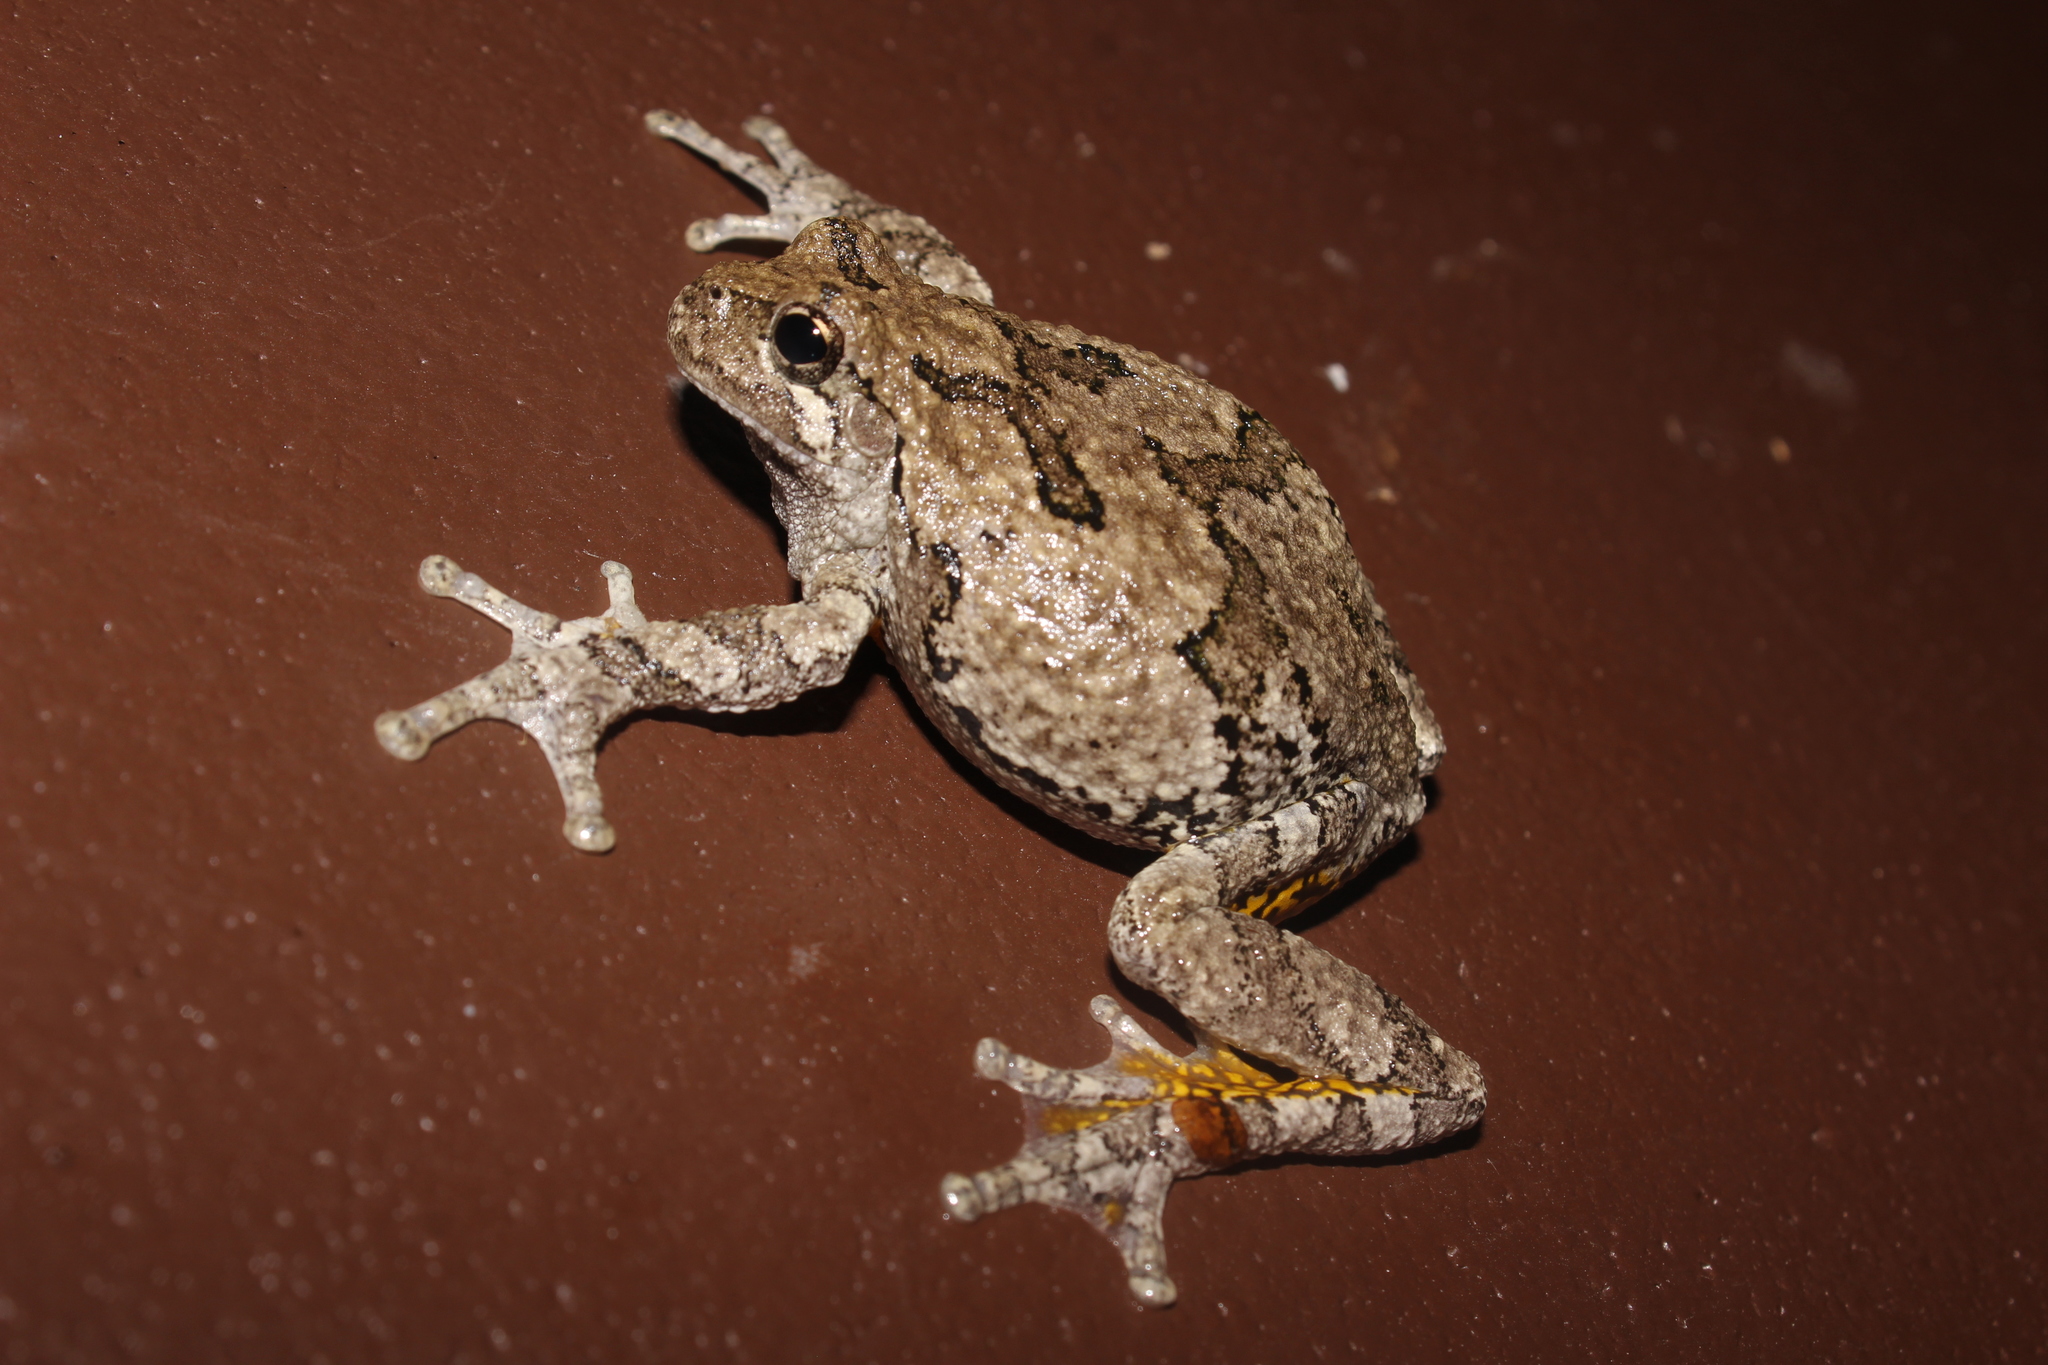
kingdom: Animalia
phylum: Chordata
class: Amphibia
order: Anura
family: Hylidae
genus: Dryophytes
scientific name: Dryophytes versicolor
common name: Gray treefrog
